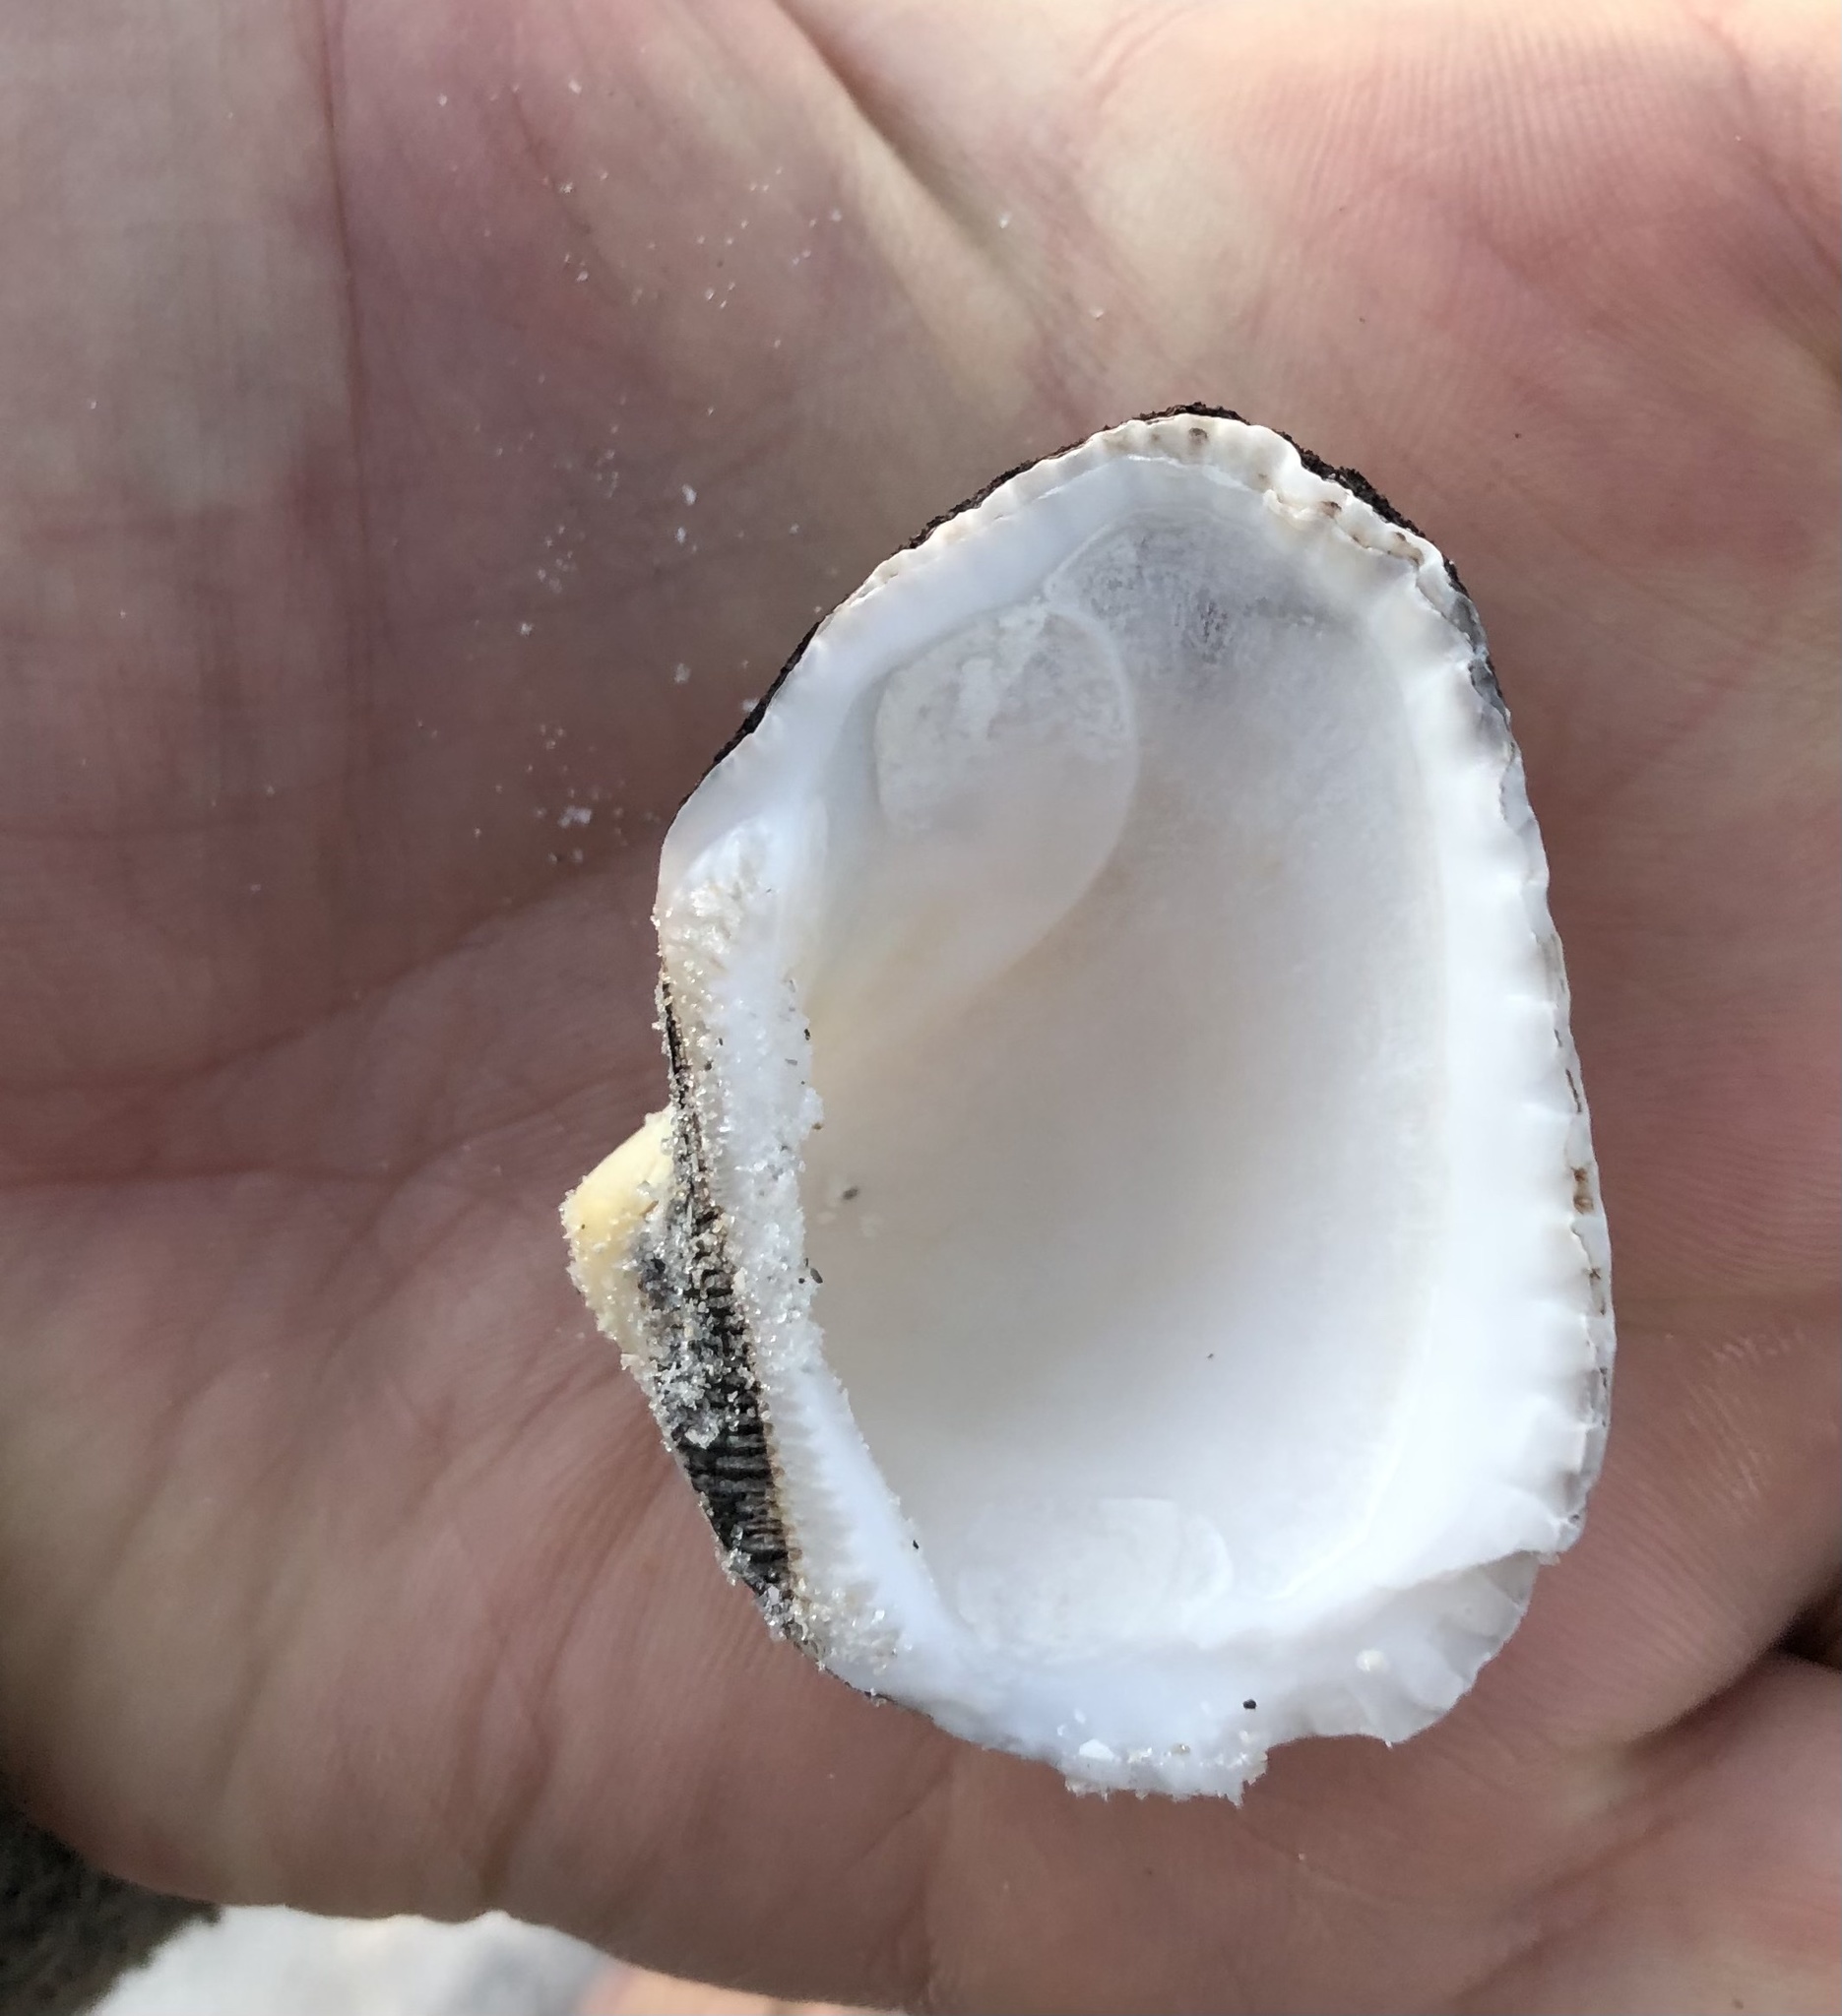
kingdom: Animalia
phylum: Mollusca
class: Bivalvia
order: Arcida
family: Noetiidae
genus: Noetia
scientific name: Noetia ponderosa
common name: Ponderous ark
